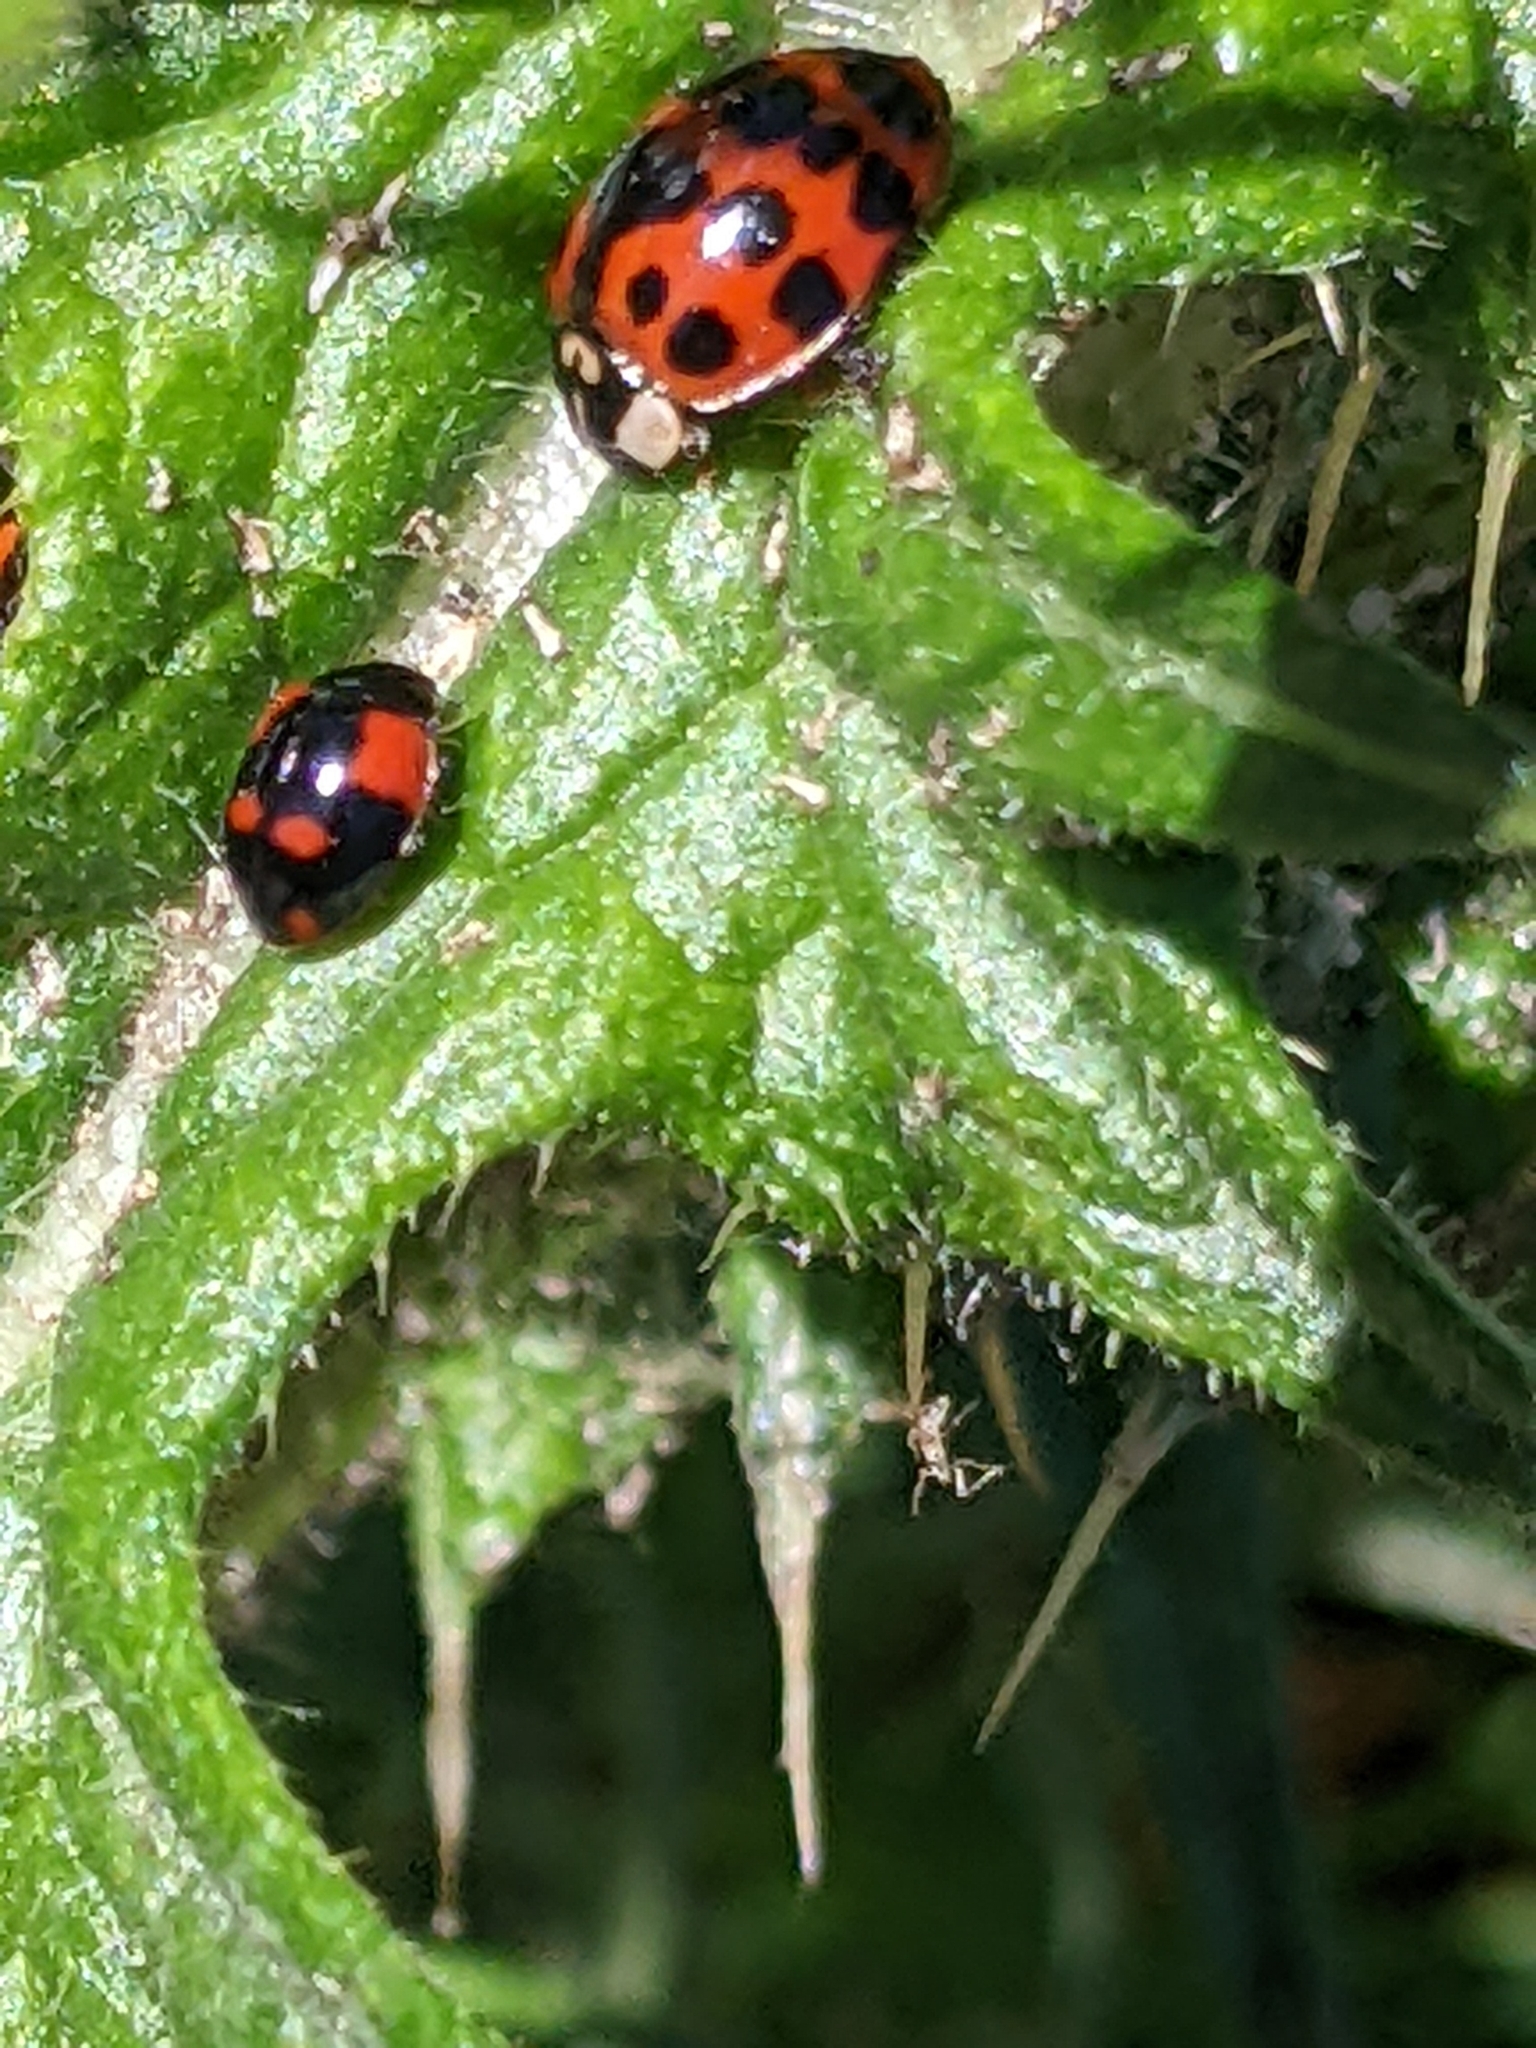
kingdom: Animalia
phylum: Arthropoda
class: Insecta
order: Coleoptera
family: Coccinellidae
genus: Adalia
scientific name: Adalia bipunctata
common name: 2-spot ladybird
